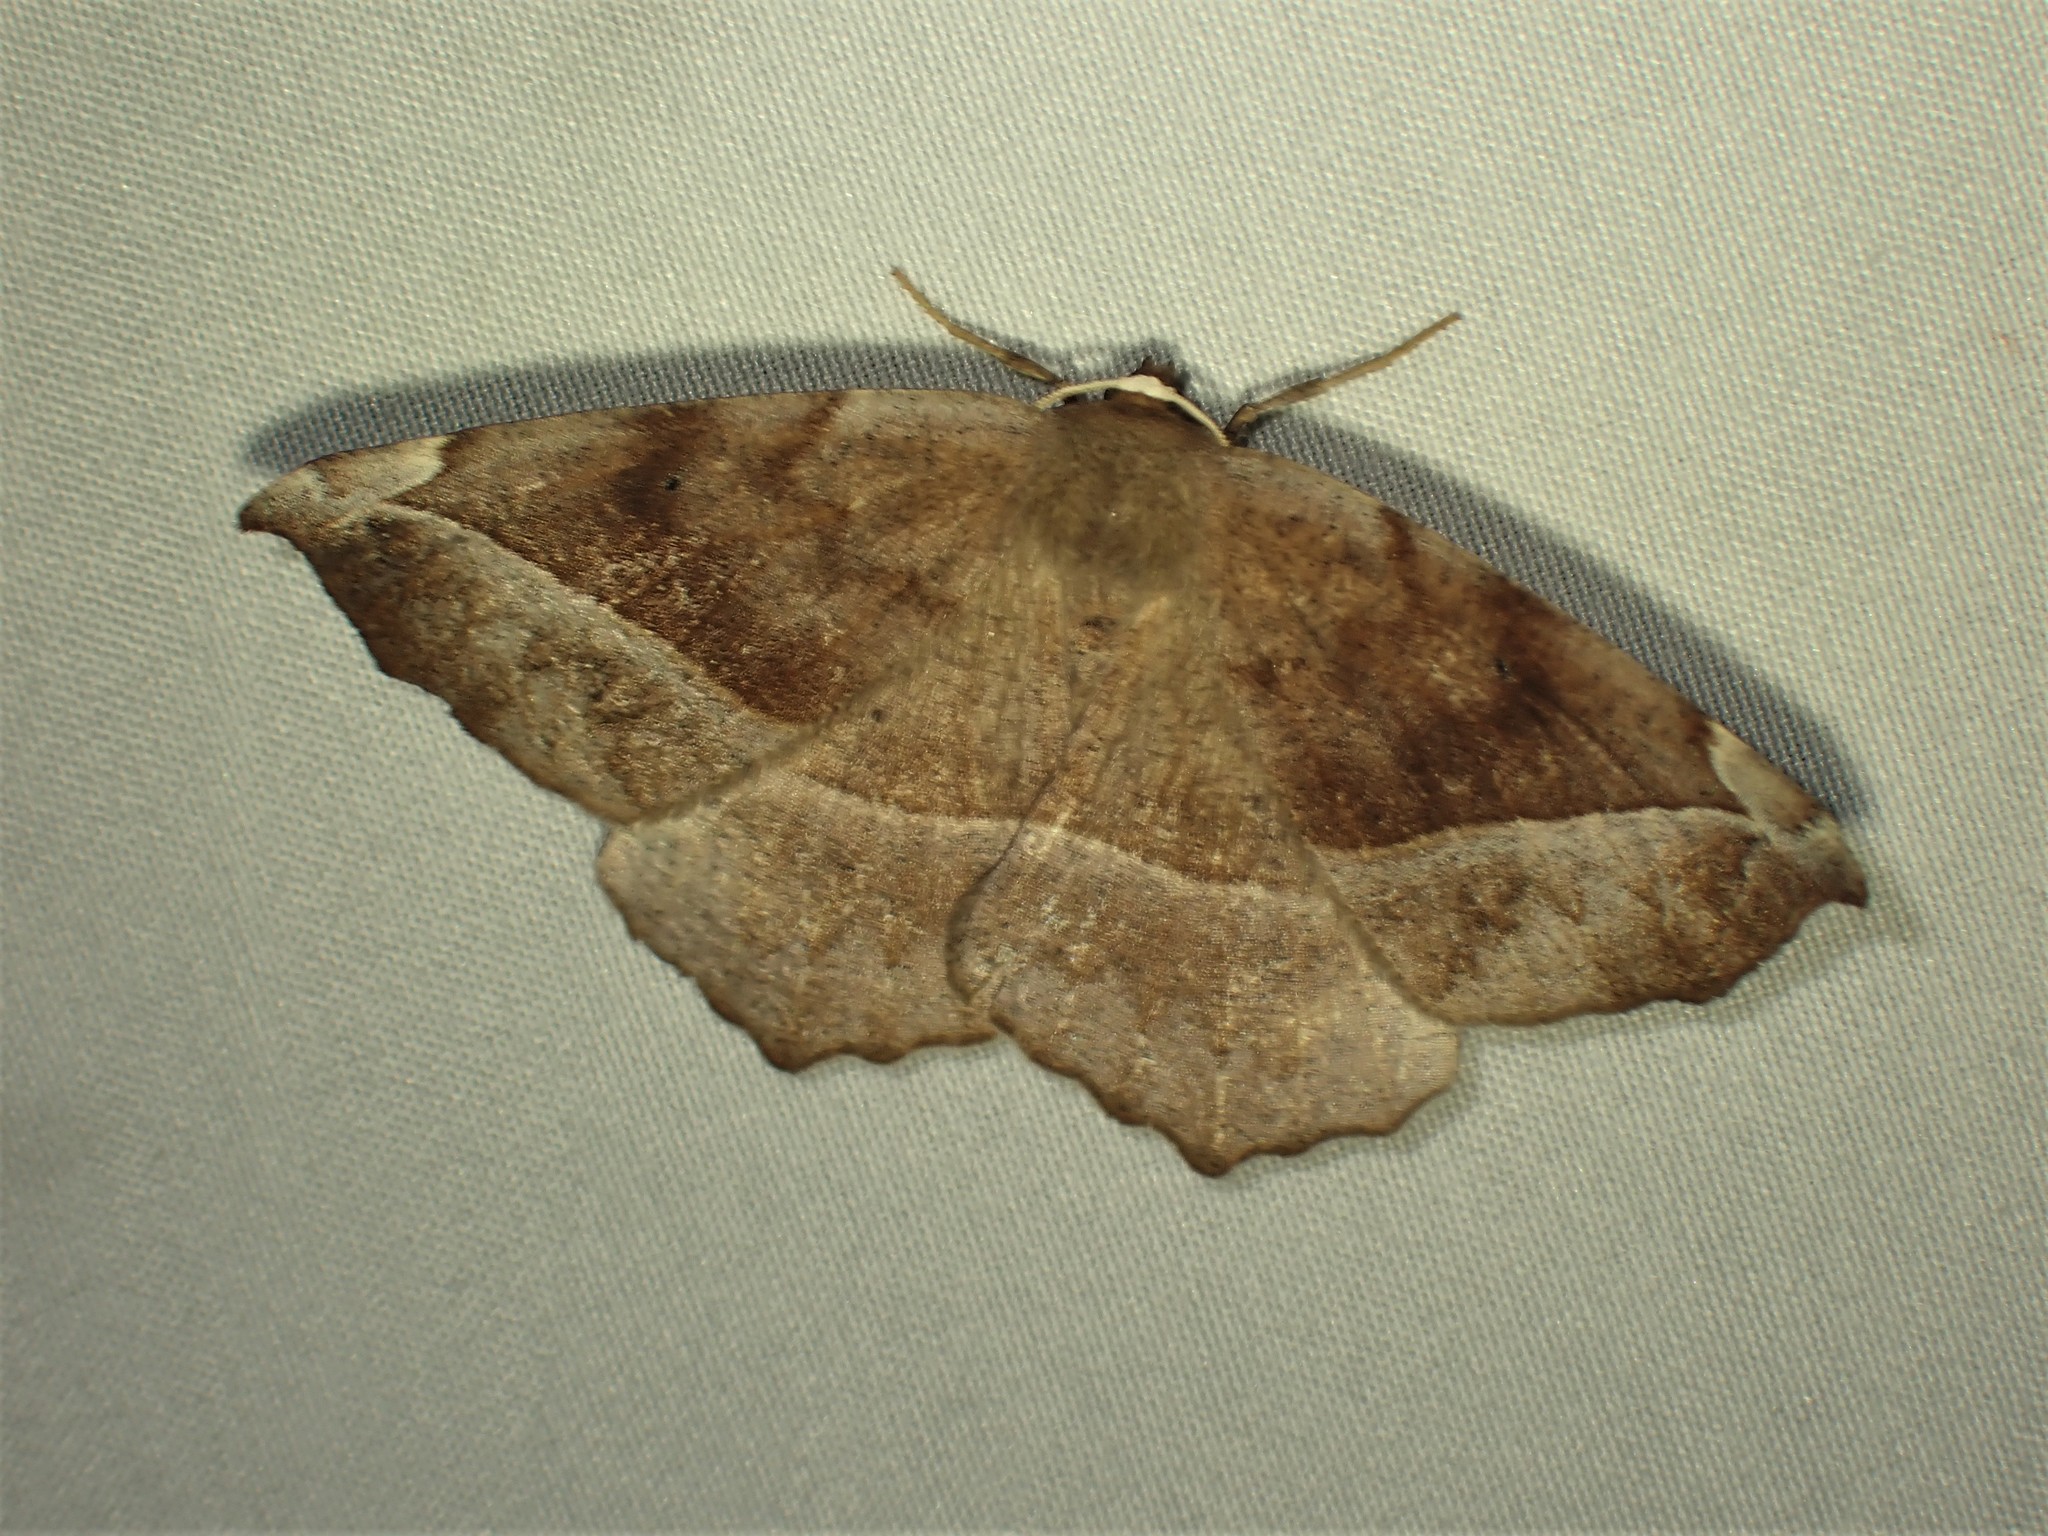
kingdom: Animalia
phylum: Arthropoda
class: Insecta
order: Lepidoptera
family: Geometridae
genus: Eutrapela
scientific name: Eutrapela clemataria
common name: Curved-toothed geometer
